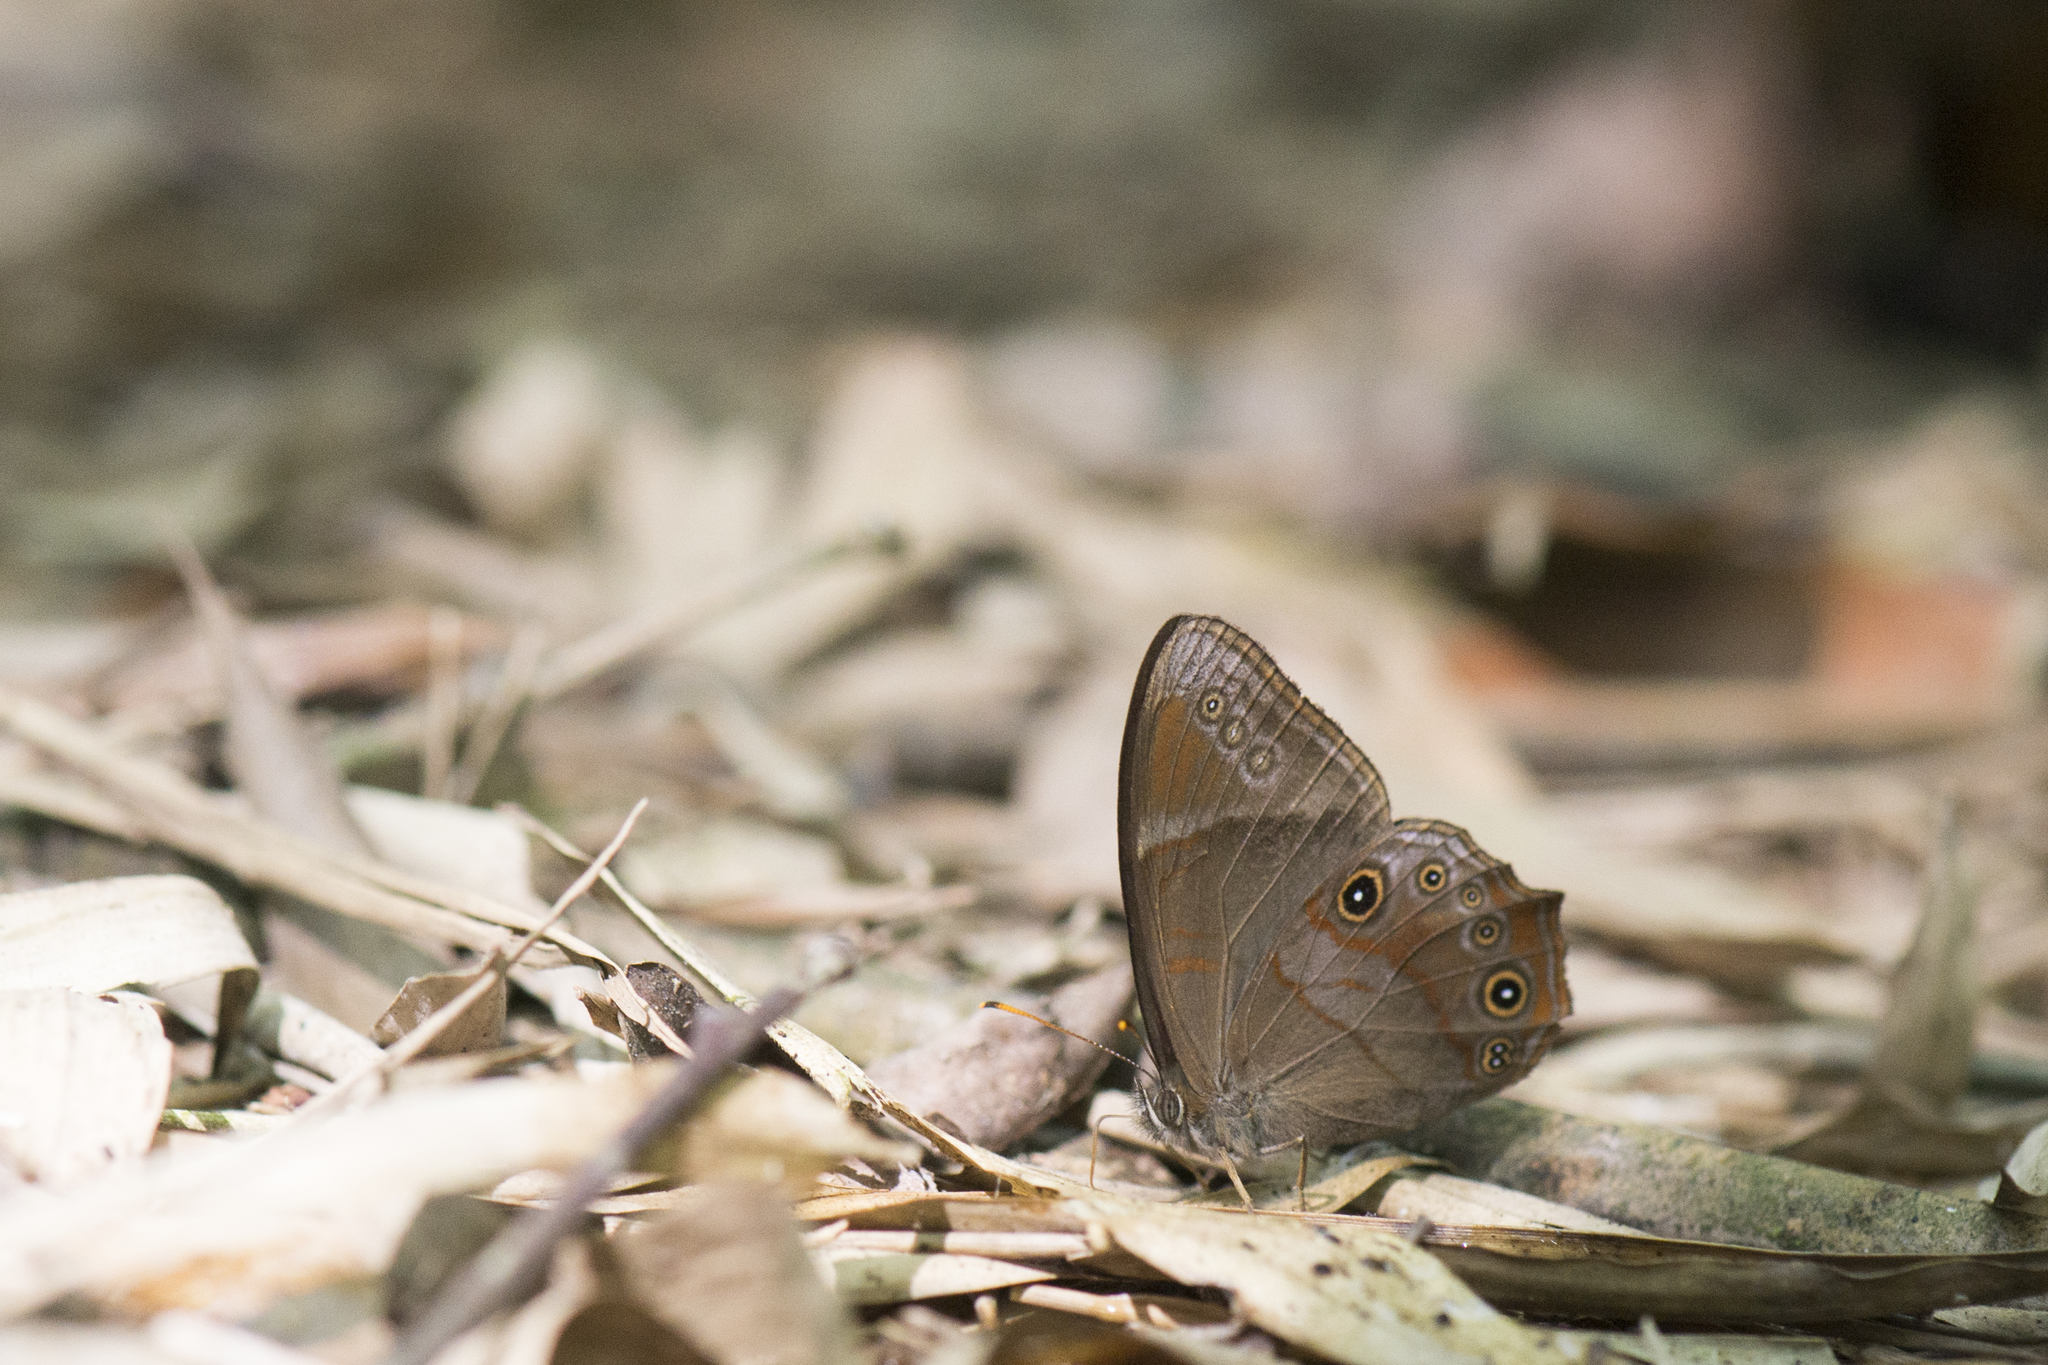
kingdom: Animalia
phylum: Arthropoda
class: Insecta
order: Lepidoptera
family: Nymphalidae
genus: Lethe
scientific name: Lethe
